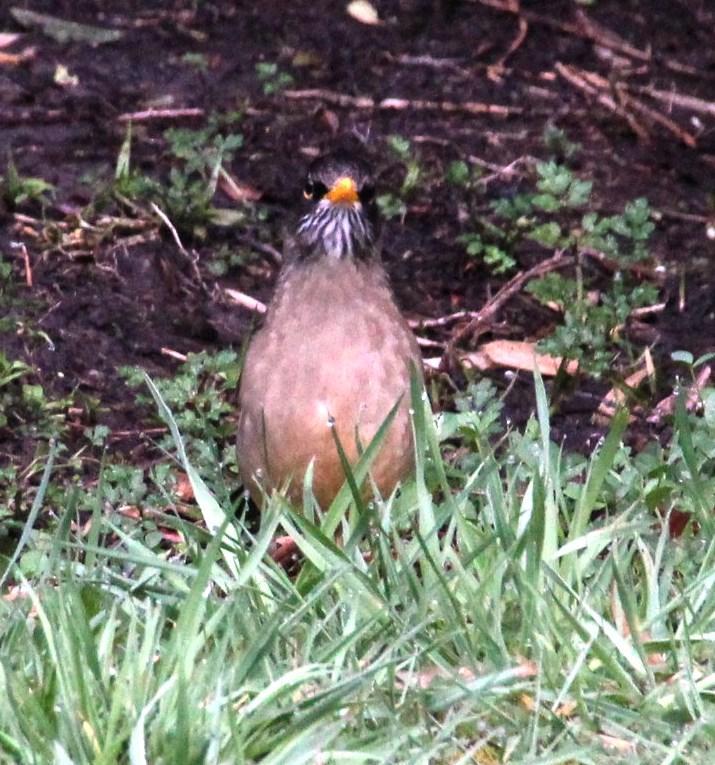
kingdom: Animalia
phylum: Chordata
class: Aves
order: Passeriformes
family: Turdidae
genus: Turdus
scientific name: Turdus falcklandii
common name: Austral thrush
